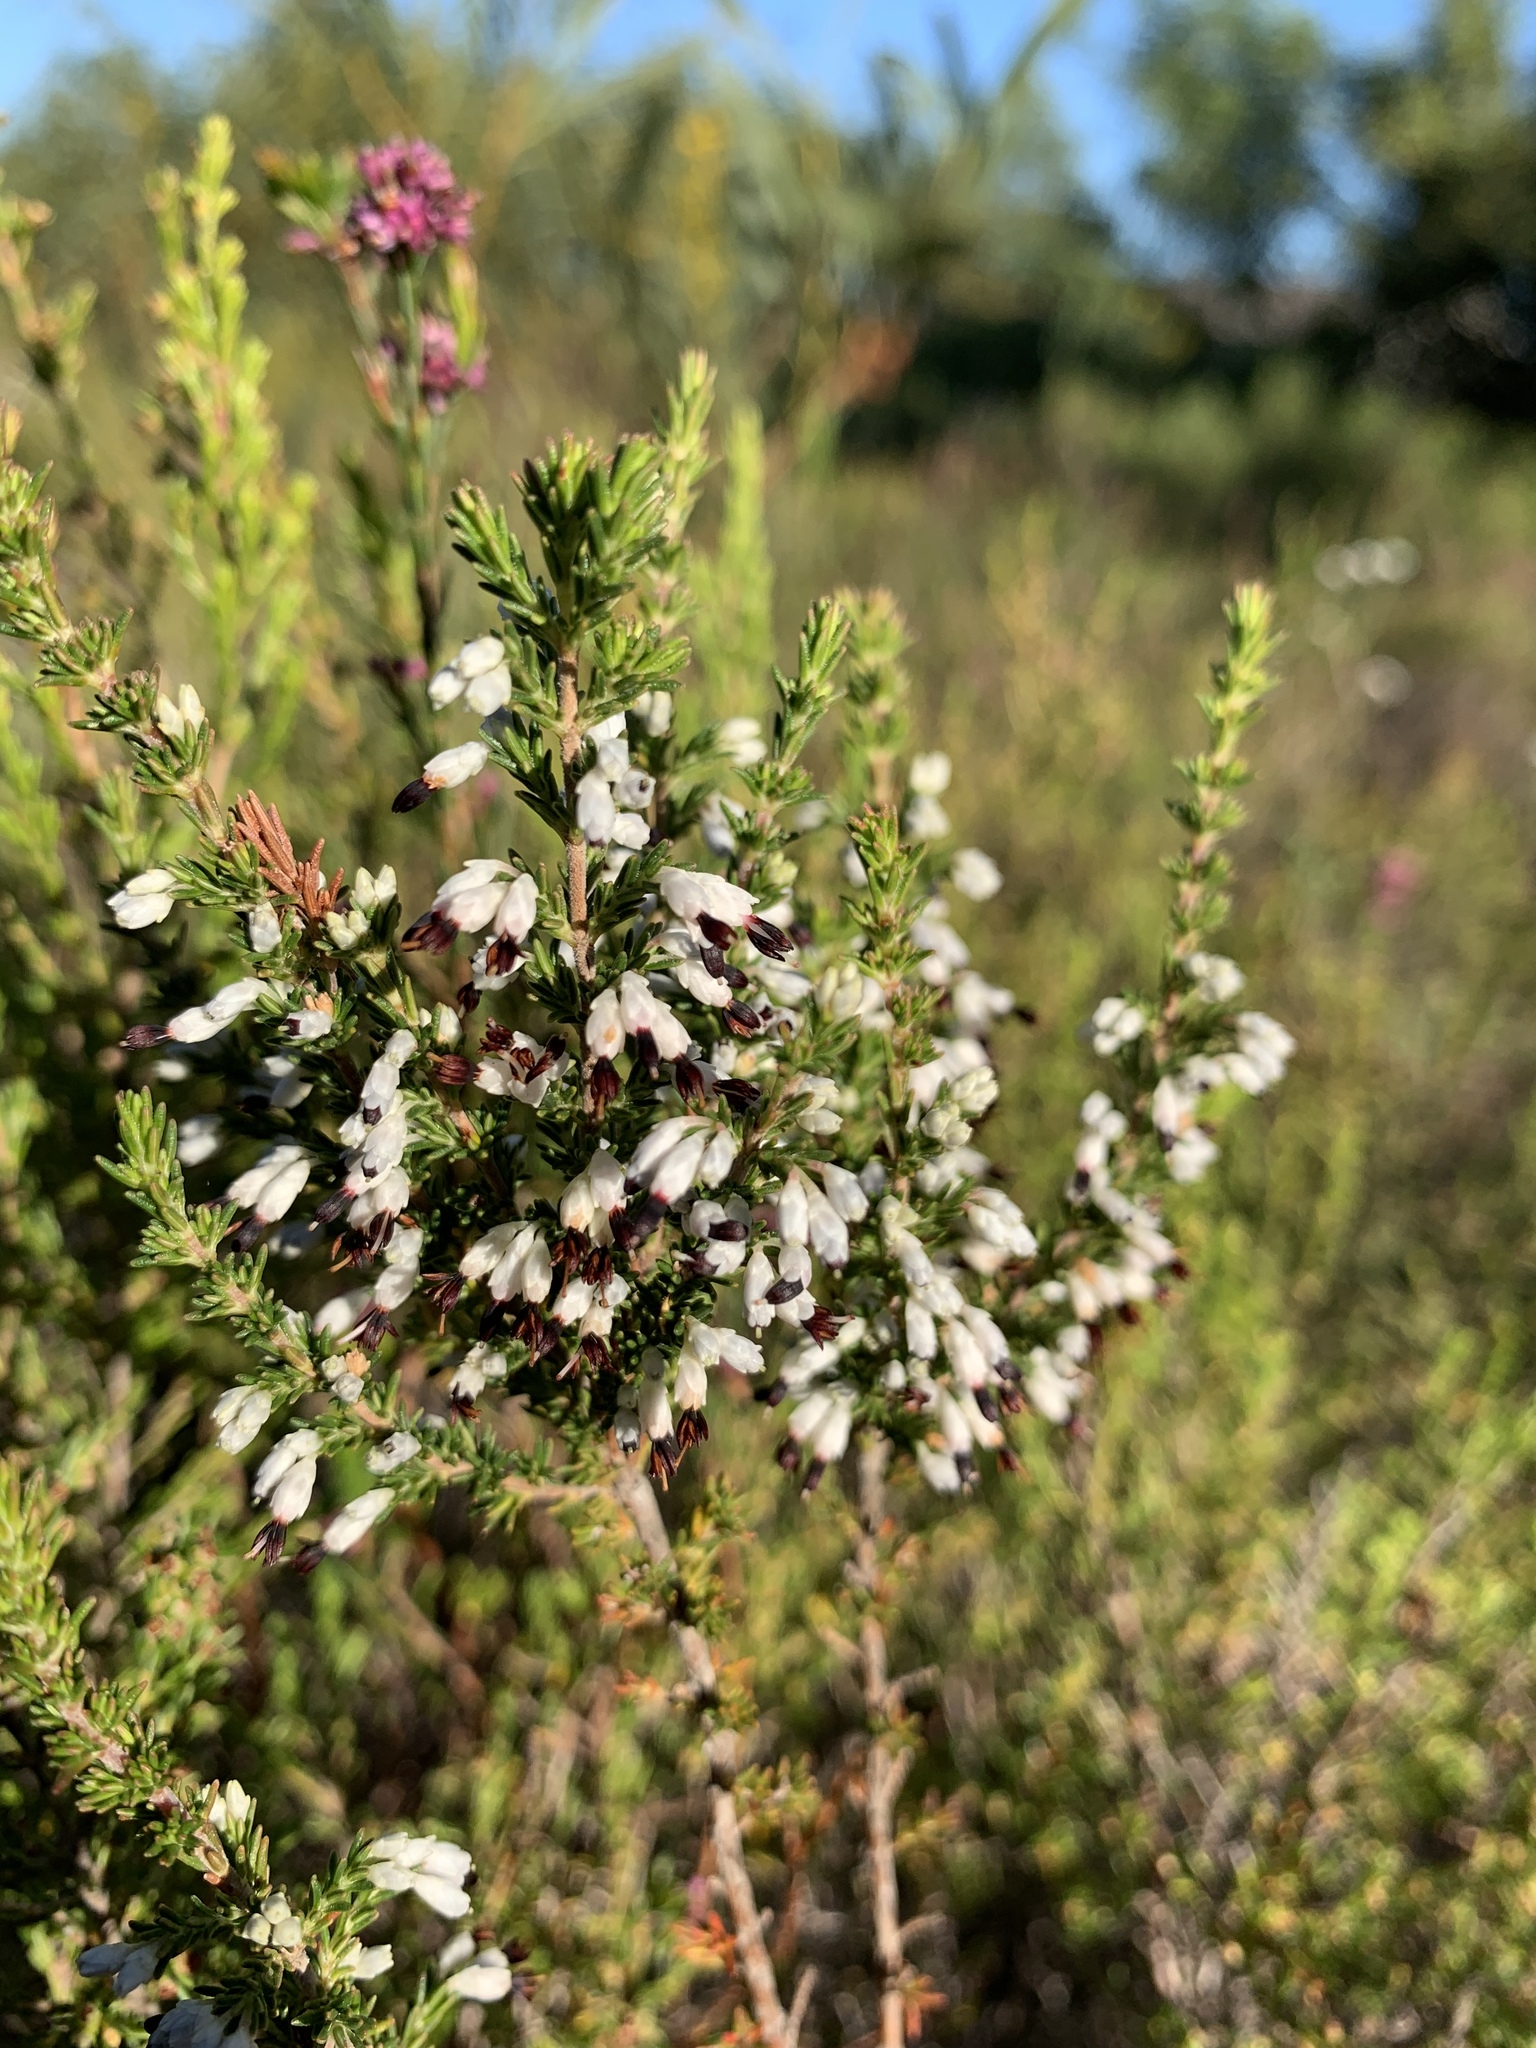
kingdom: Plantae
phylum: Tracheophyta
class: Magnoliopsida
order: Ericales
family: Ericaceae
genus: Erica
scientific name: Erica imbricata
